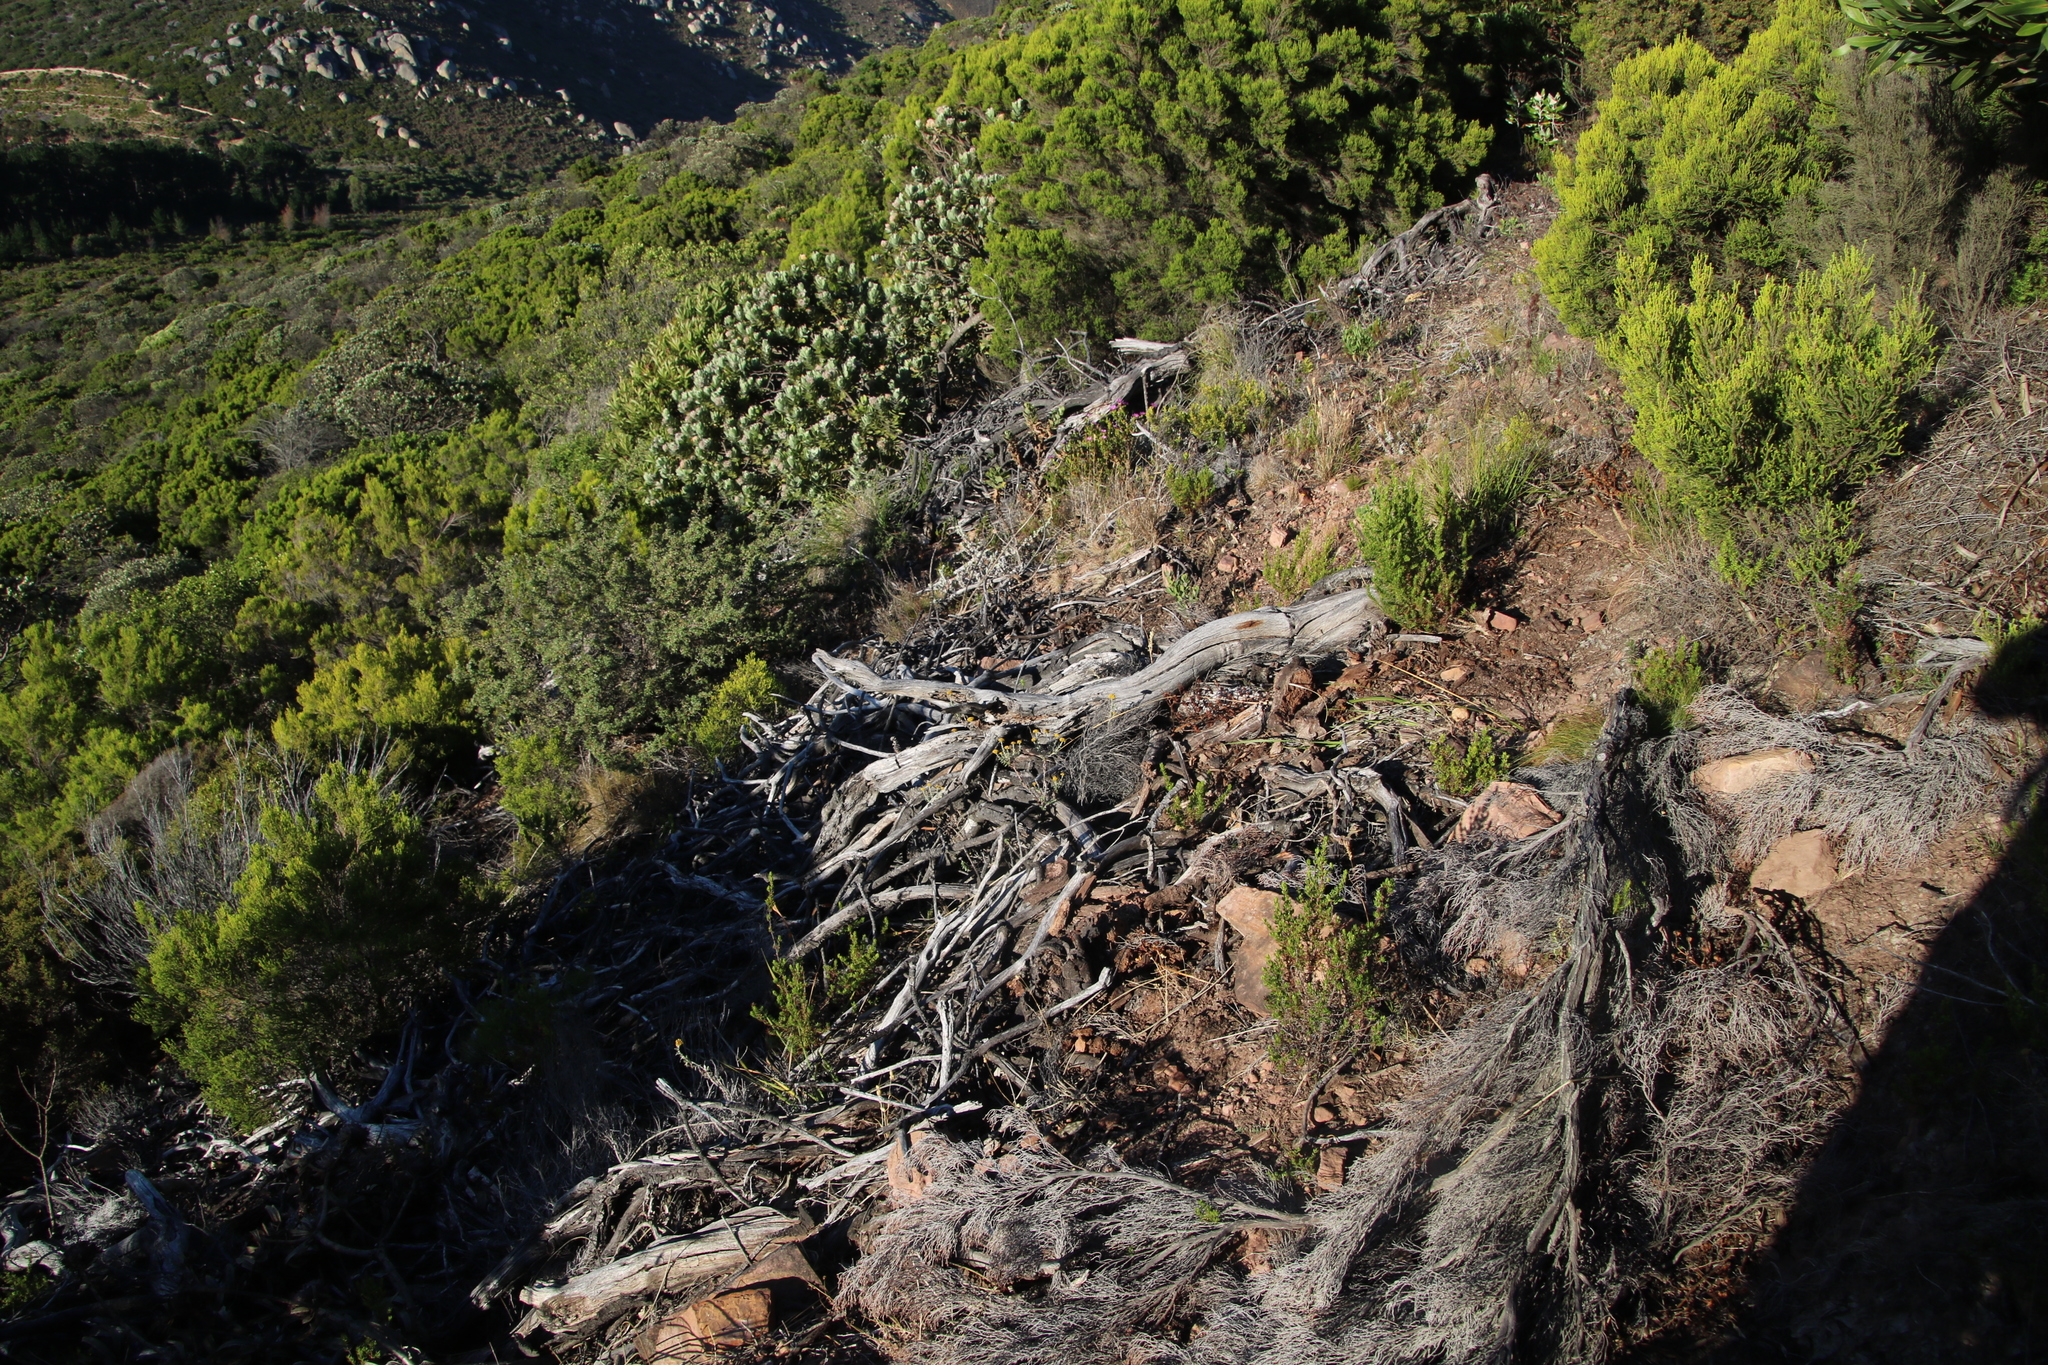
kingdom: Plantae
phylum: Tracheophyta
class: Magnoliopsida
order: Proteales
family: Proteaceae
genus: Protea
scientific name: Protea lepidocarpodendron
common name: Black-bearded protea
